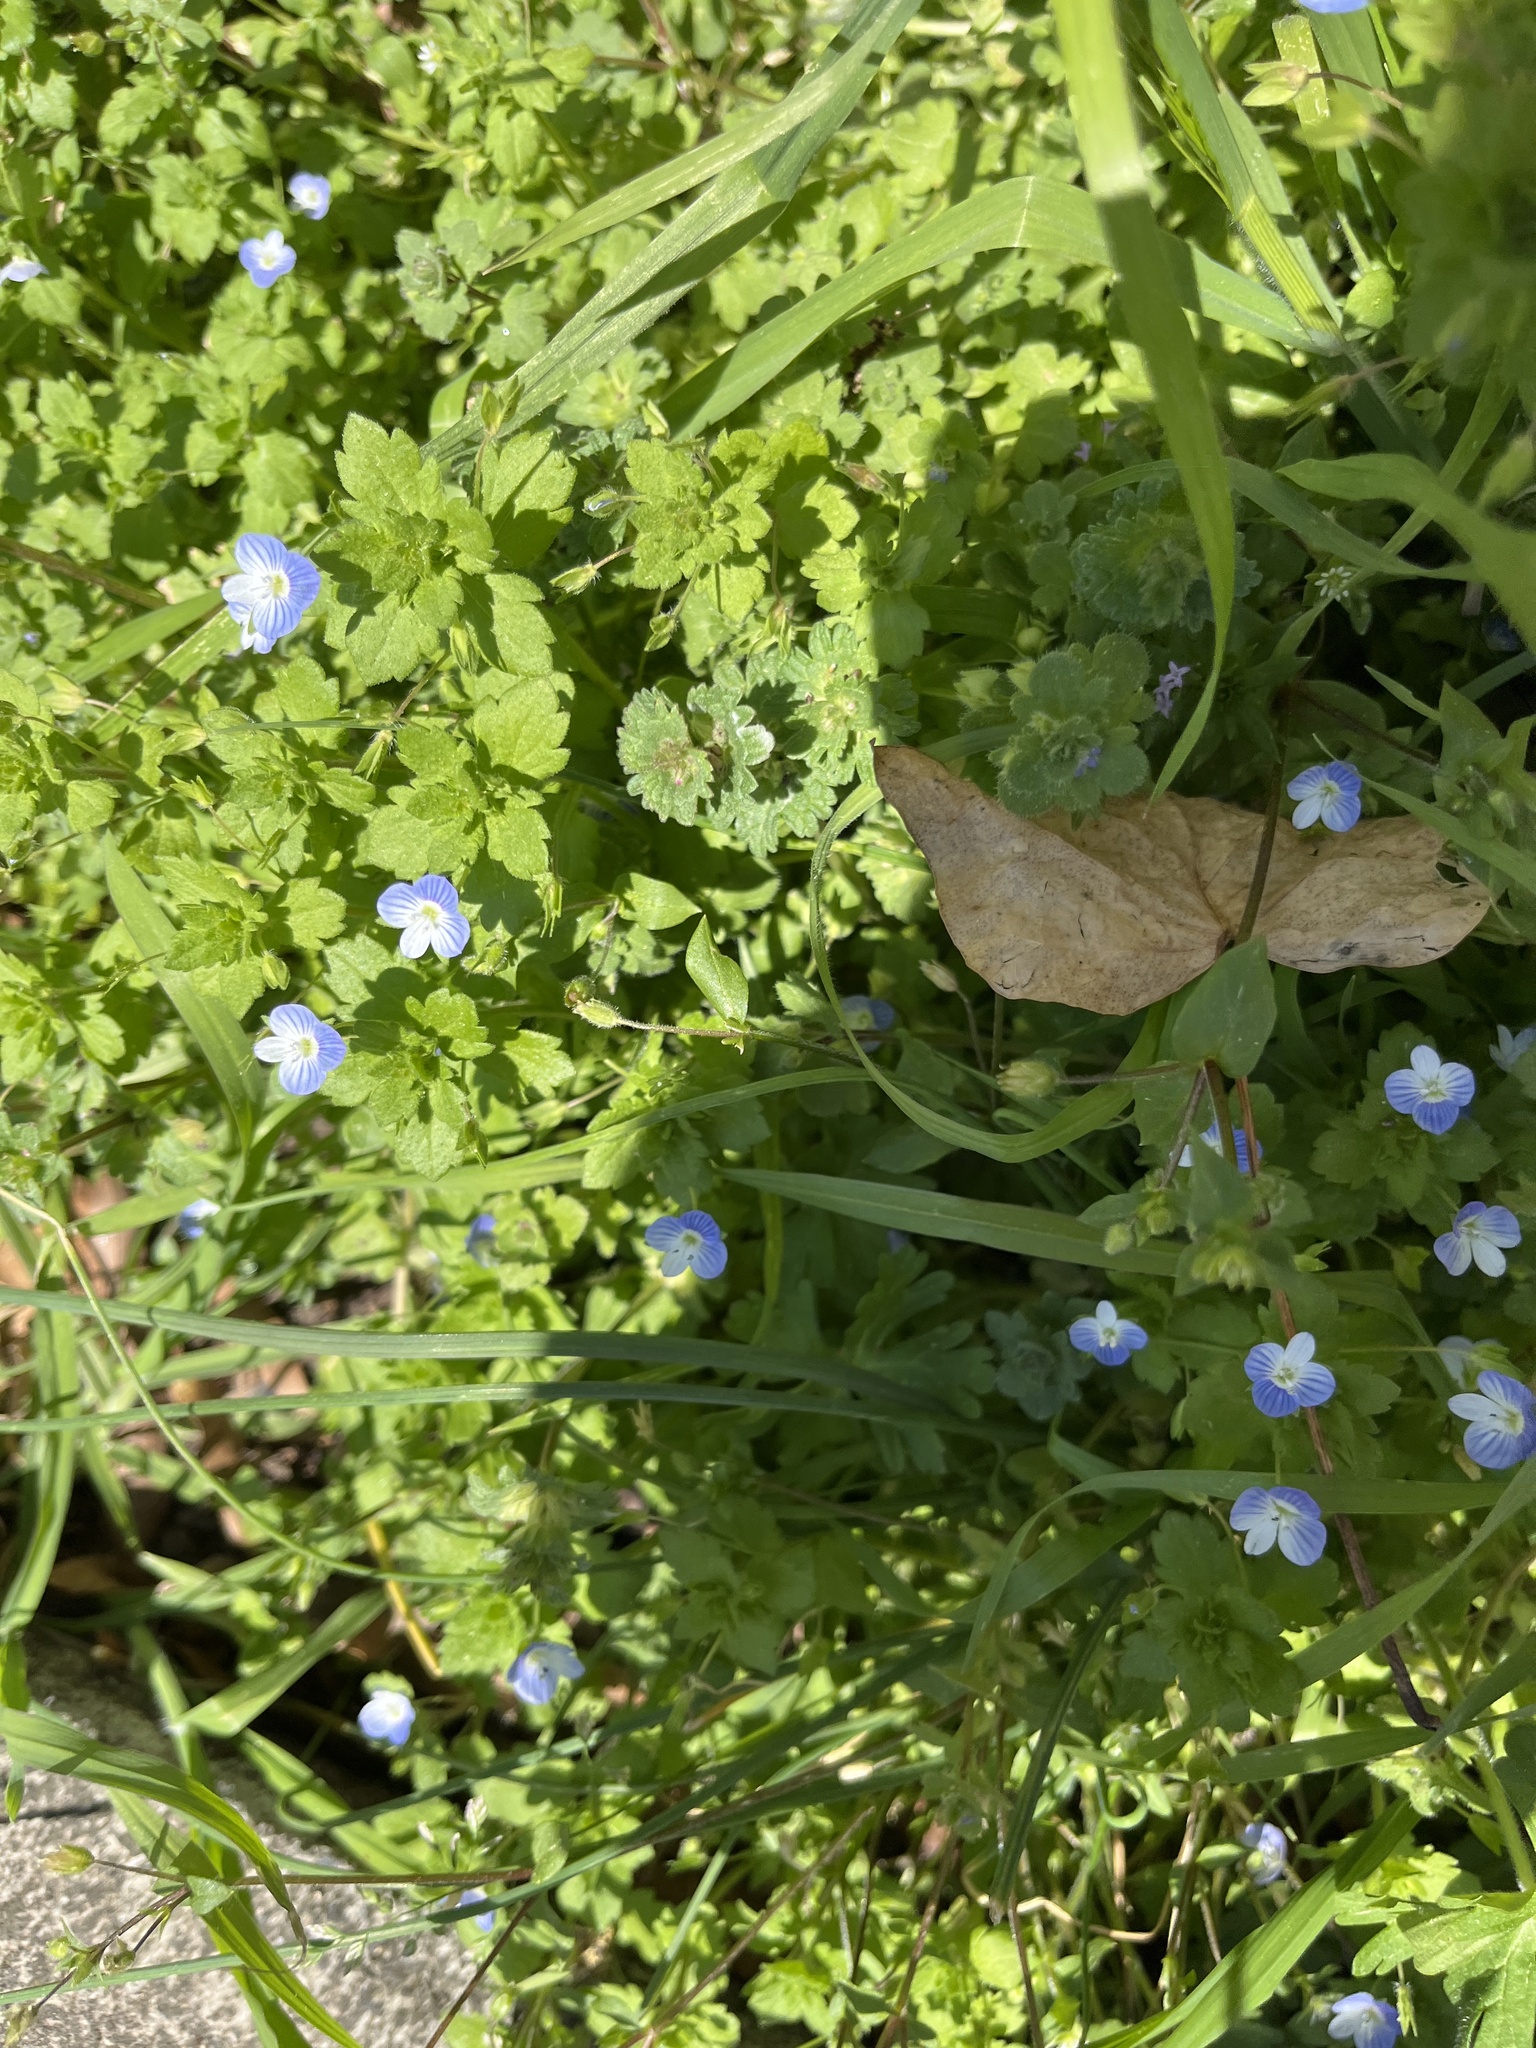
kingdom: Plantae
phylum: Tracheophyta
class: Magnoliopsida
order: Lamiales
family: Plantaginaceae
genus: Veronica
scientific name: Veronica persica
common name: Common field-speedwell
